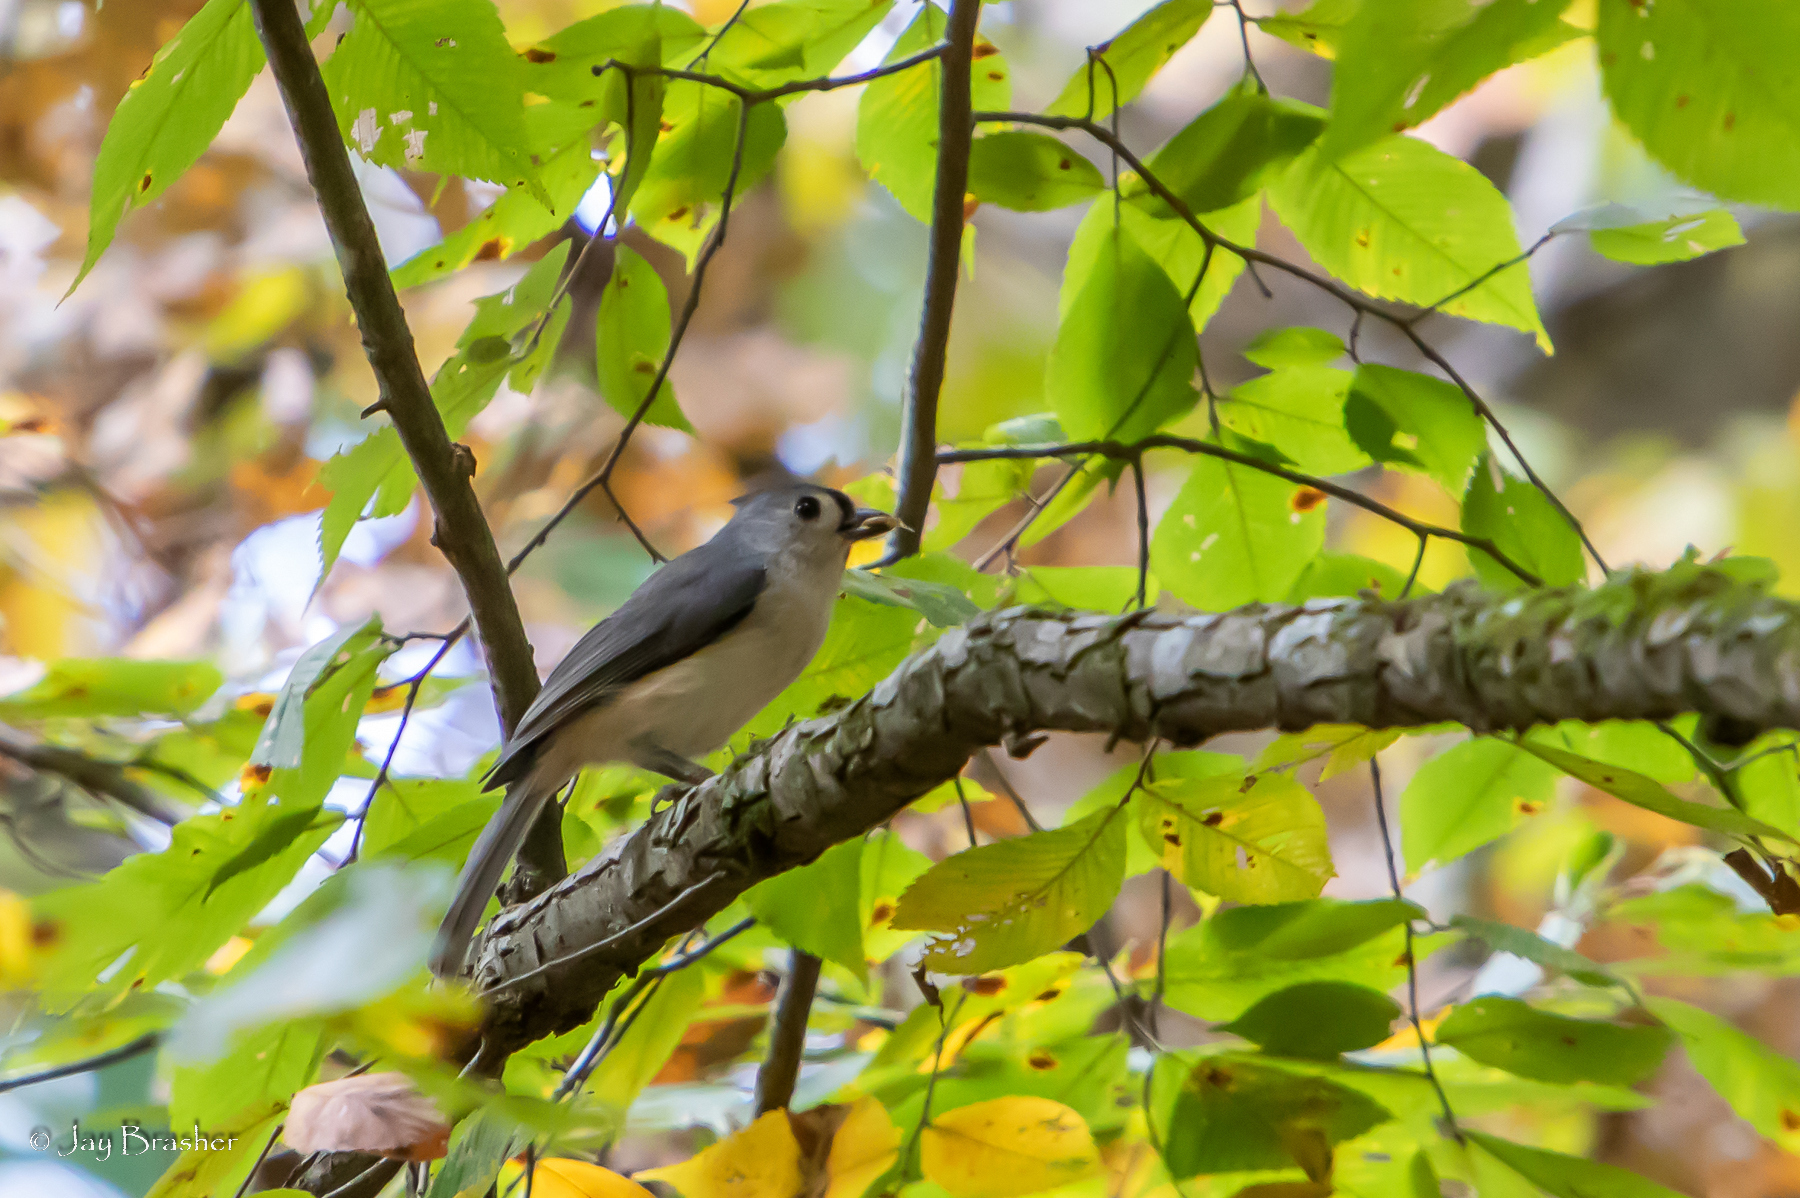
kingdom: Animalia
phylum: Chordata
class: Aves
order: Passeriformes
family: Paridae
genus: Baeolophus
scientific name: Baeolophus bicolor
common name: Tufted titmouse
